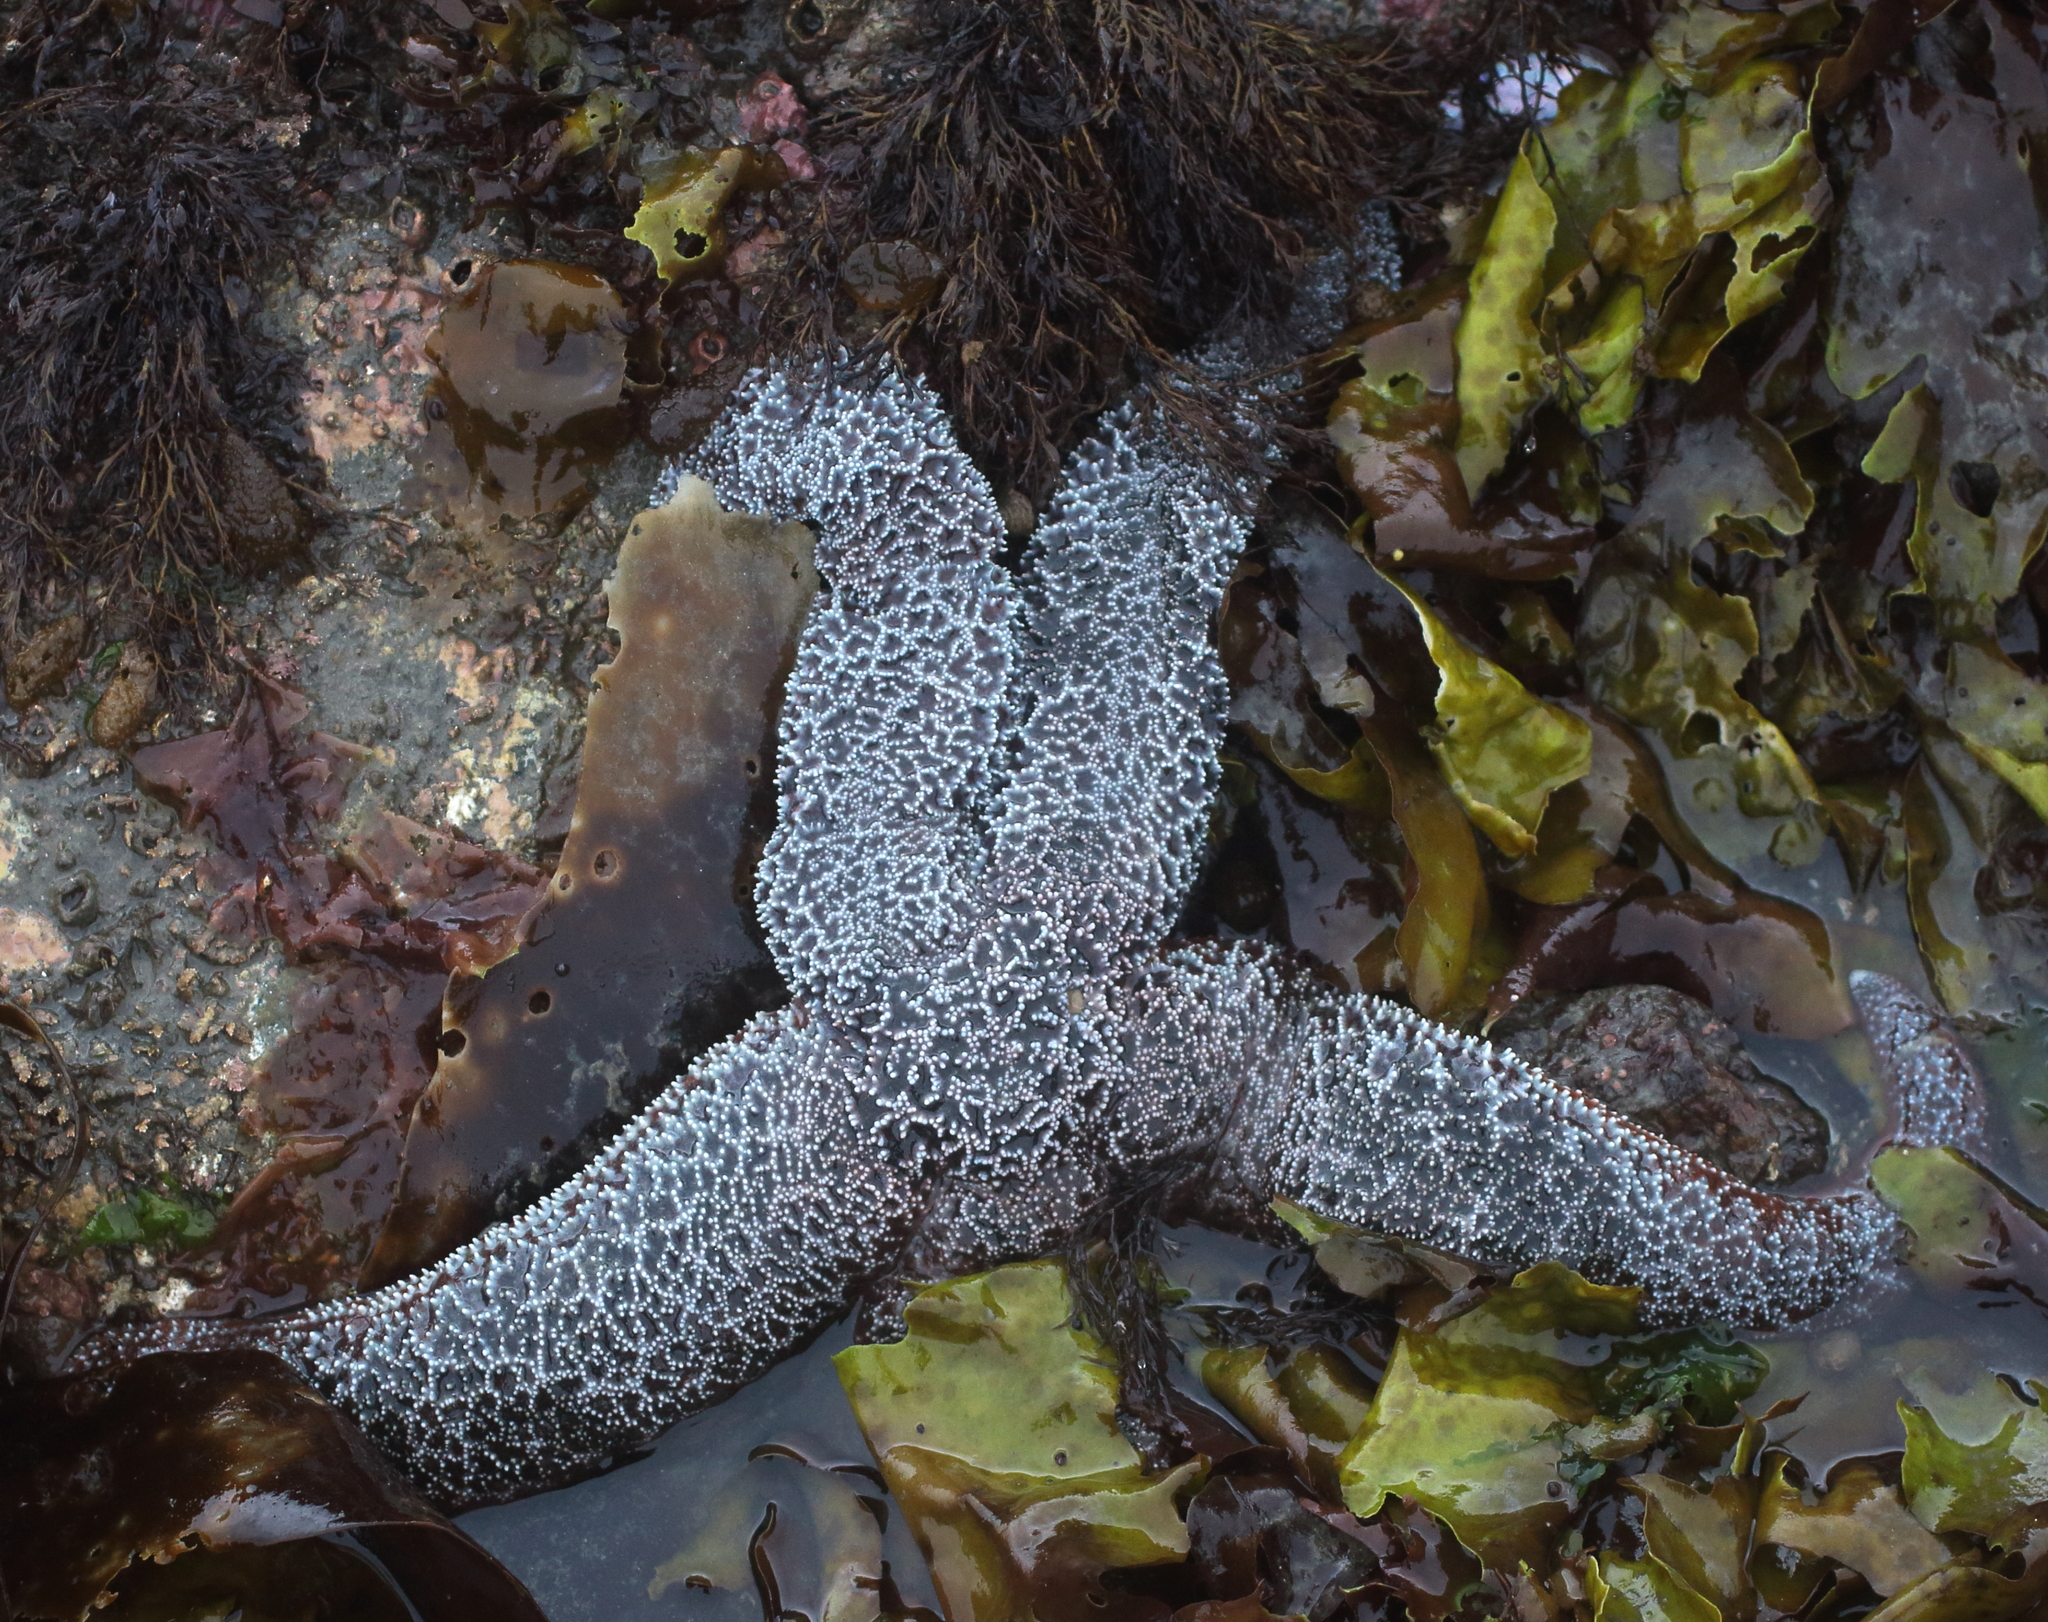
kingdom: Animalia
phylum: Echinodermata
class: Asteroidea
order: Forcipulatida
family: Asteriidae
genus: Evasterias
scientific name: Evasterias troschelii
